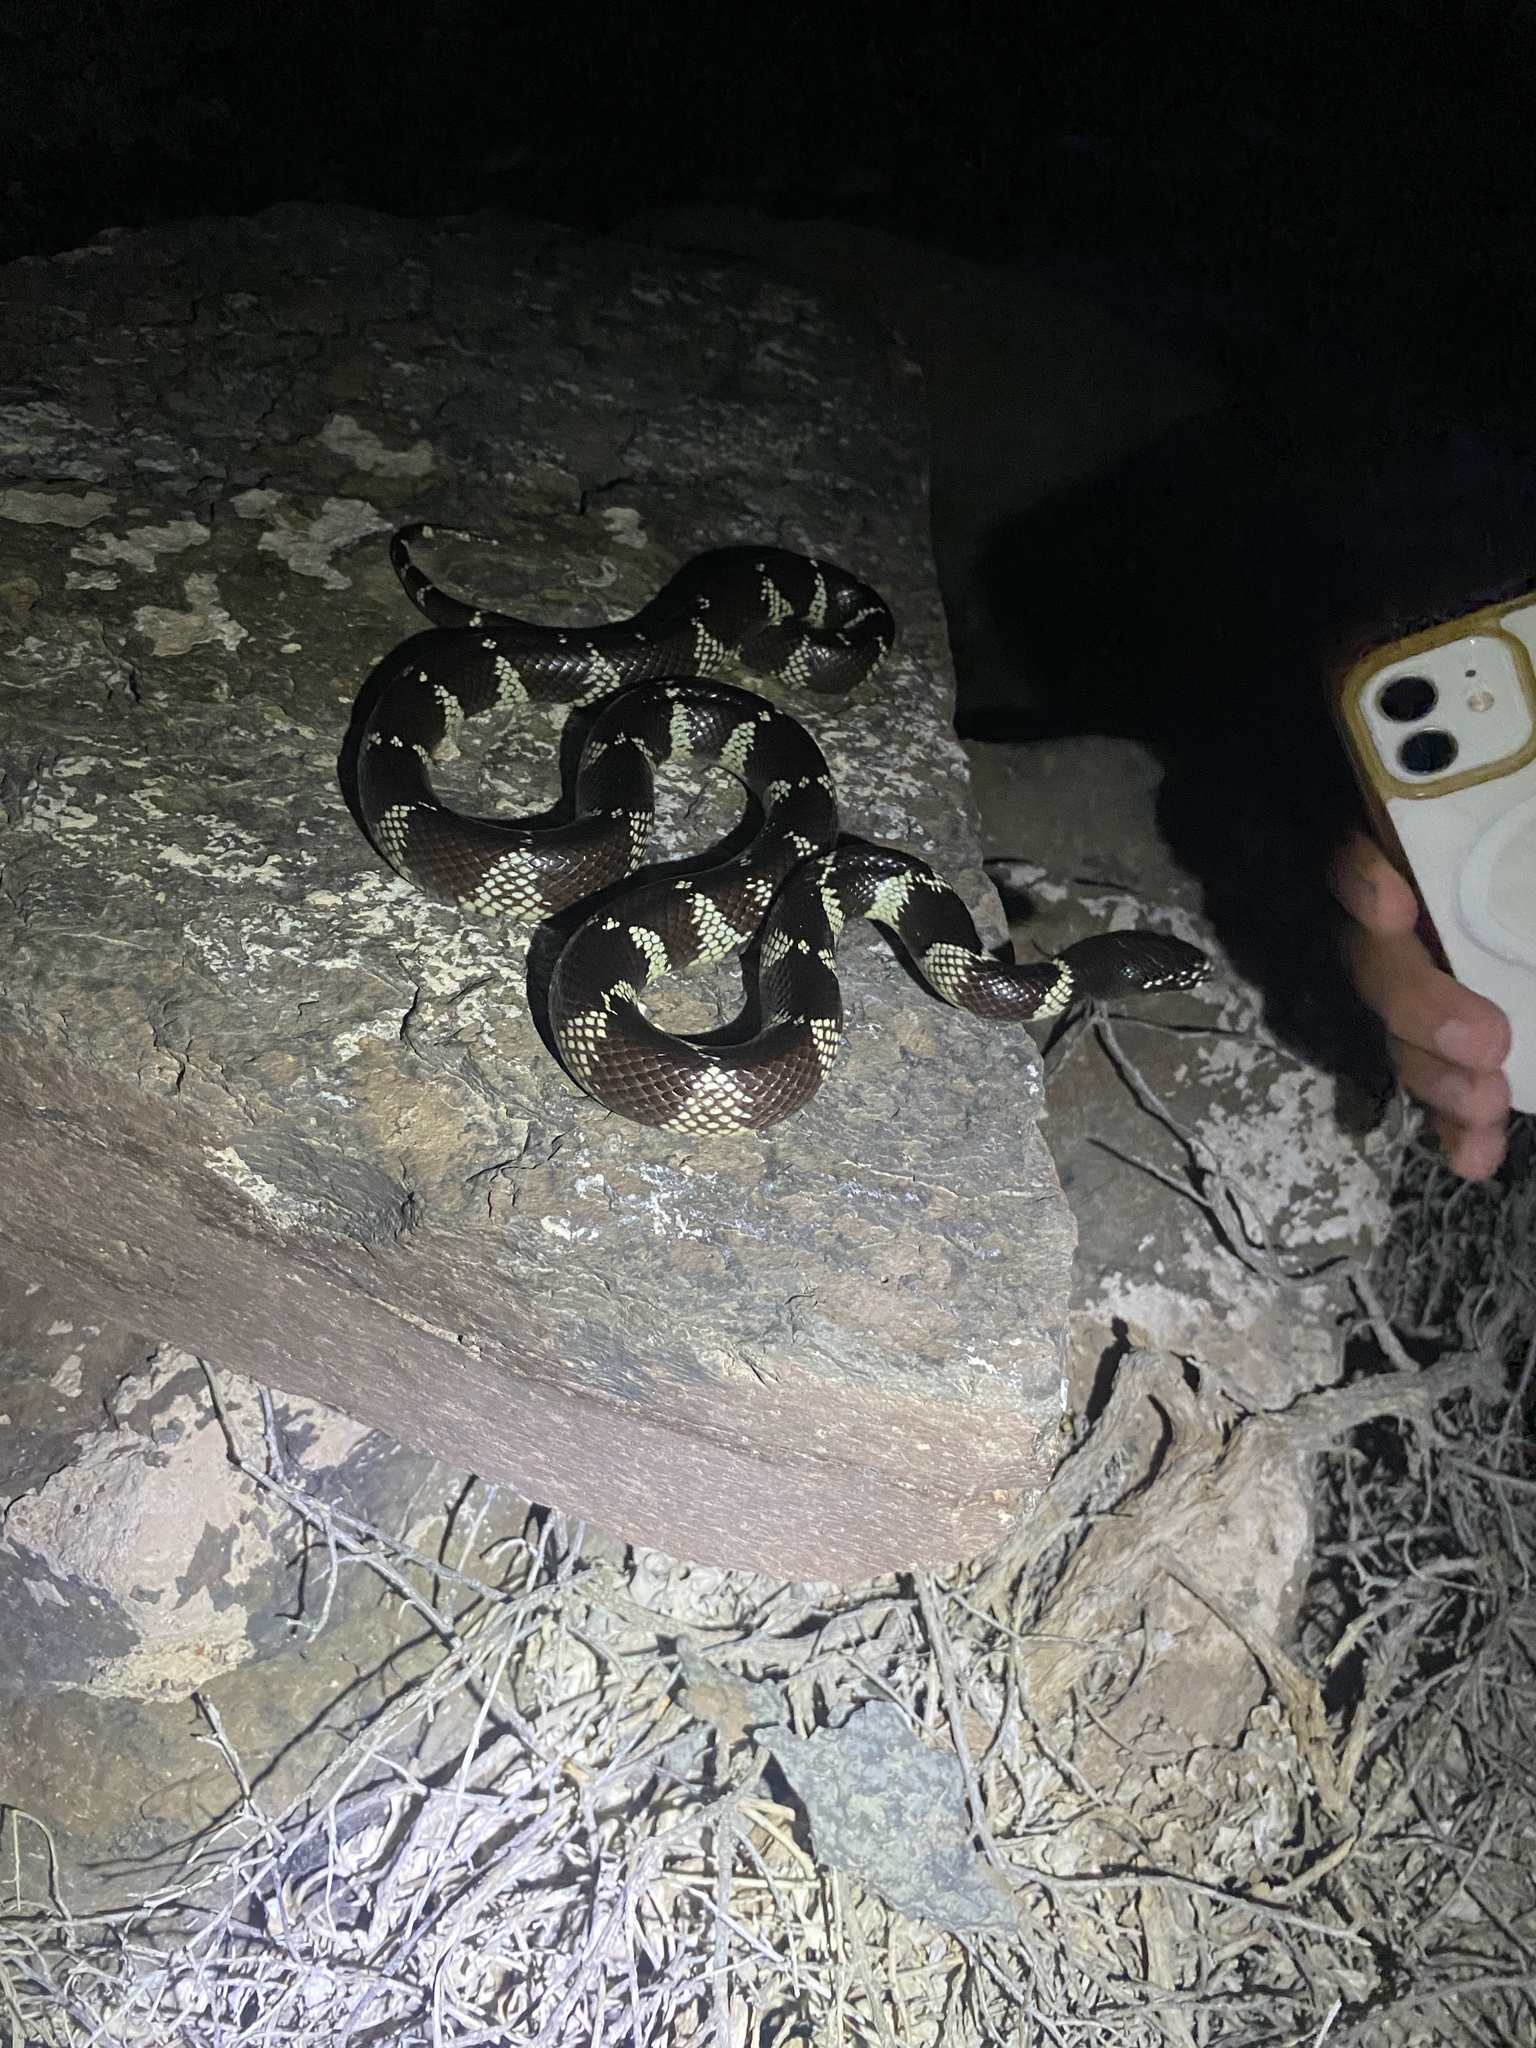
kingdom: Animalia
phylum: Chordata
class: Squamata
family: Colubridae
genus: Lampropeltis
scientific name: Lampropeltis californiae
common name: California kingsnake
